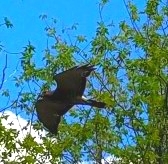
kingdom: Animalia
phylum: Chordata
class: Aves
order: Accipitriformes
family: Accipitridae
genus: Buteo
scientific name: Buteo platypterus
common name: Broad-winged hawk
